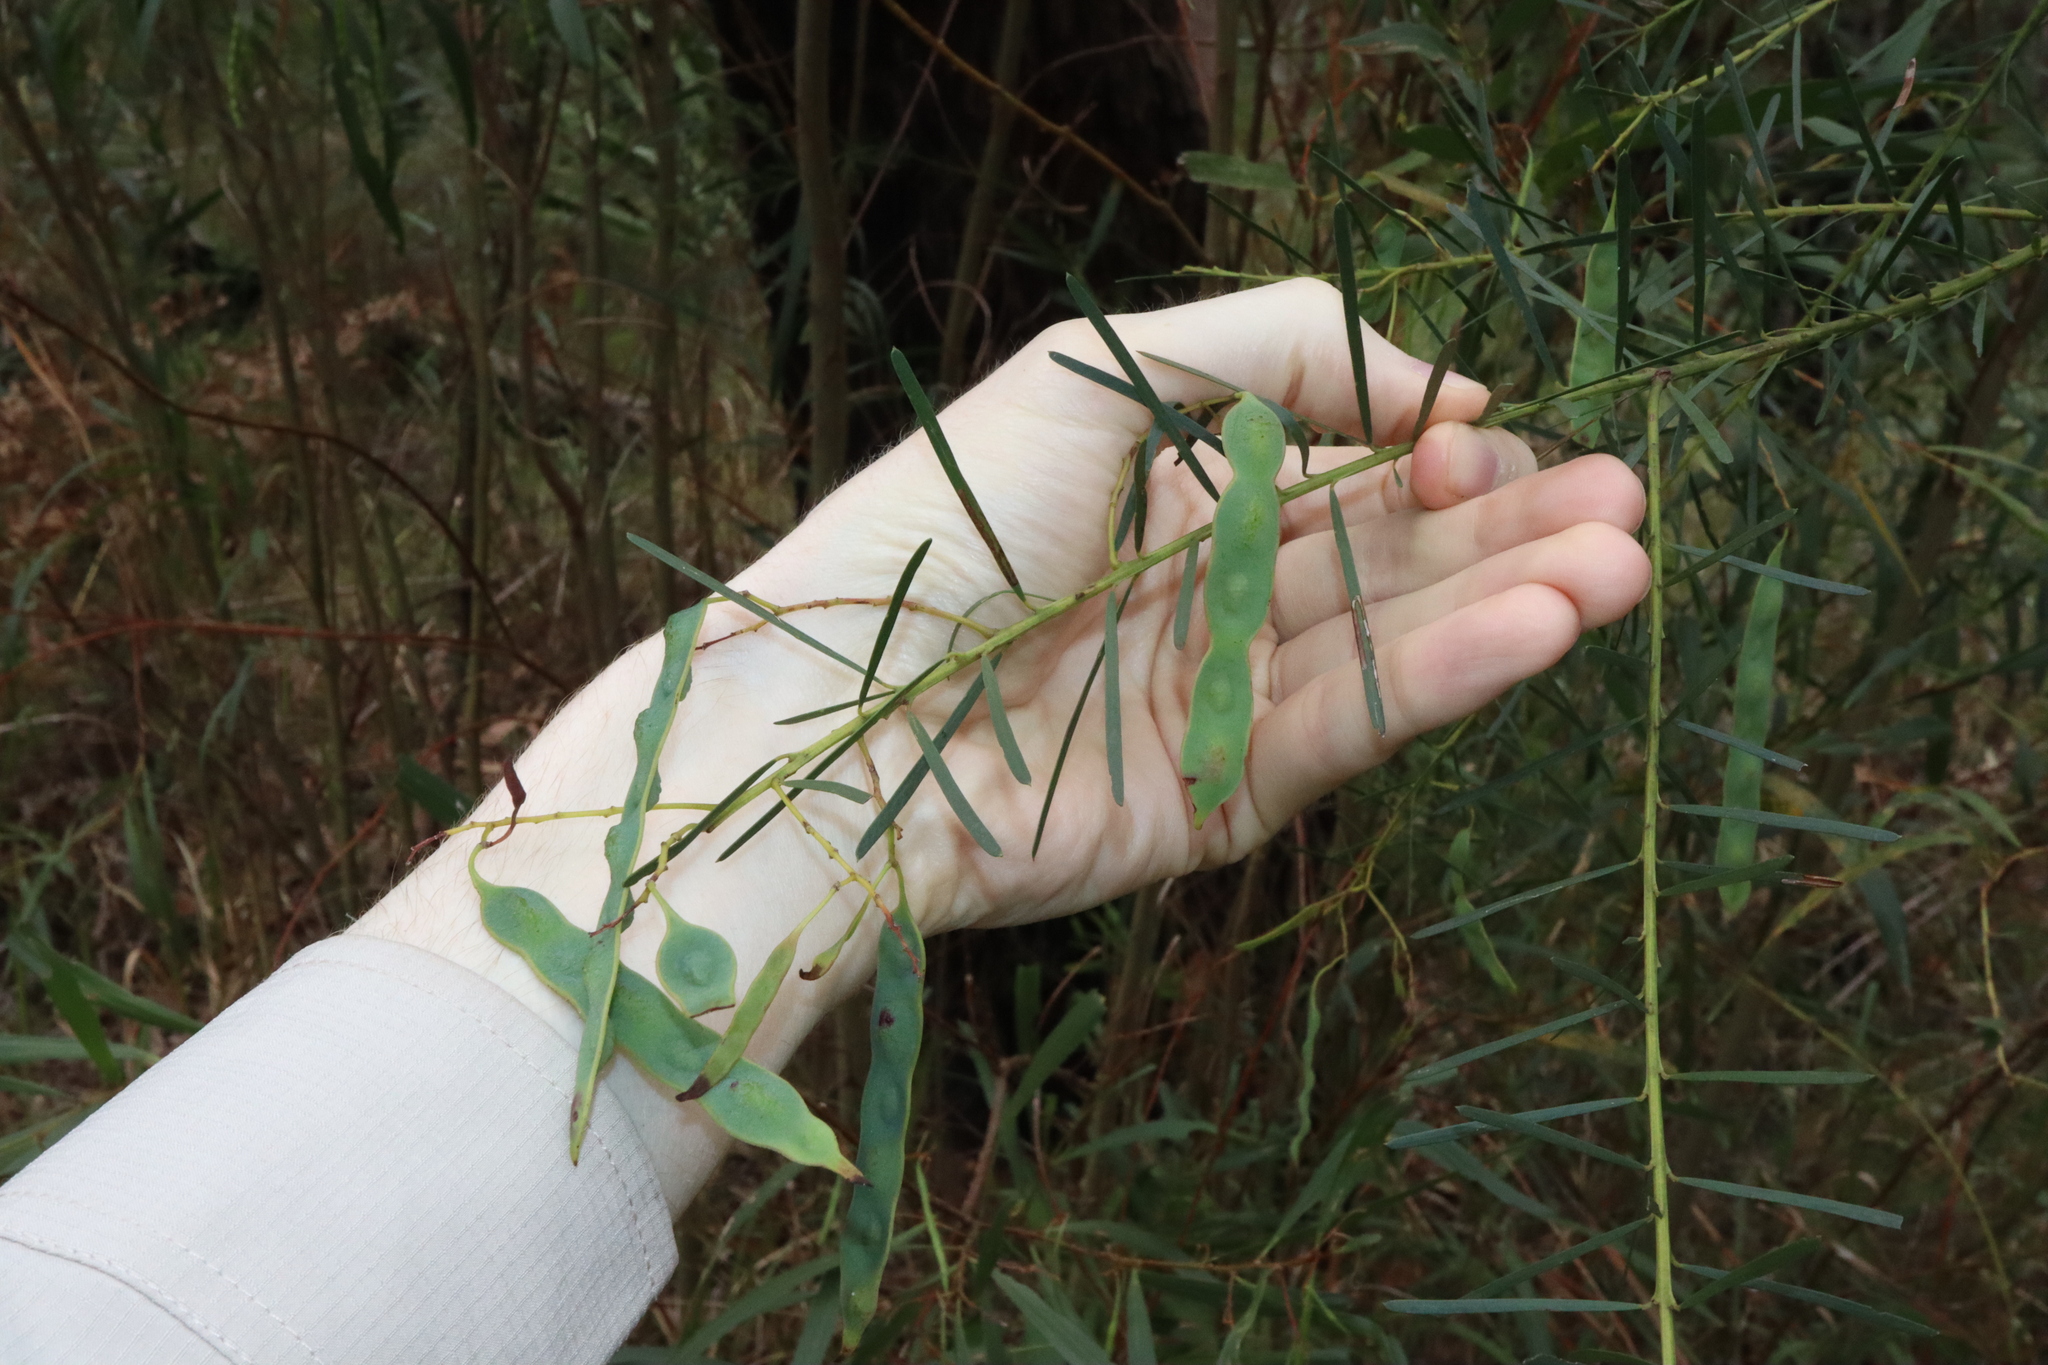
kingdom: Plantae
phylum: Tracheophyta
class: Magnoliopsida
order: Fabales
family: Fabaceae
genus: Acacia
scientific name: Acacia linifolia
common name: White wattle
